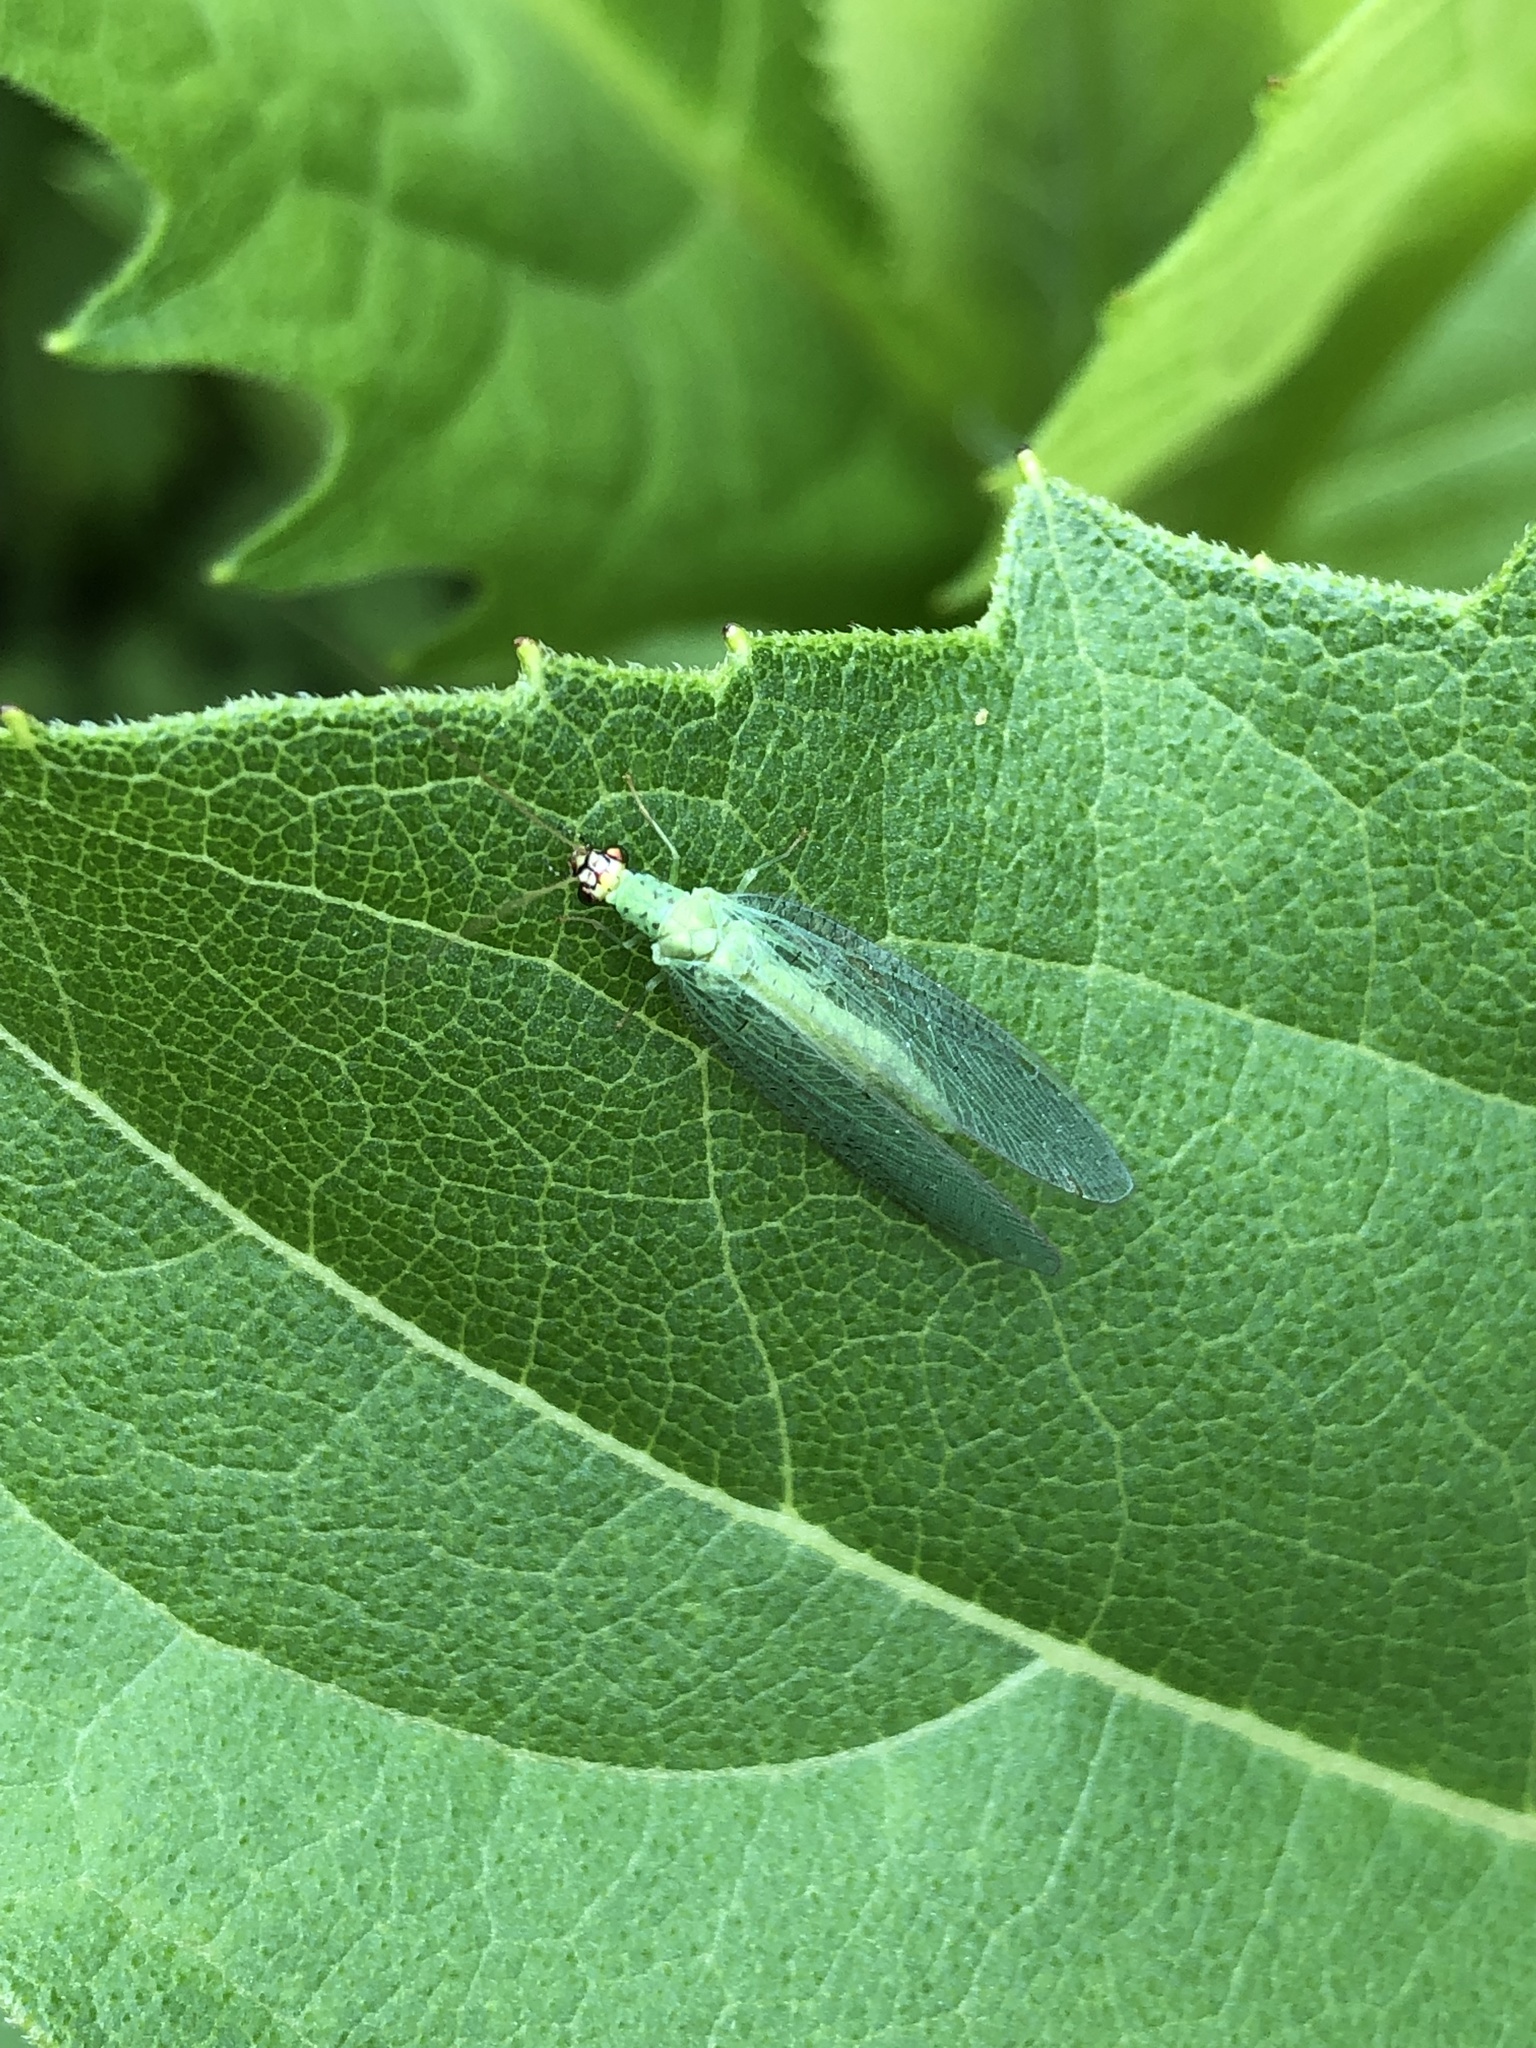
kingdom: Animalia
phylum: Arthropoda
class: Insecta
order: Neuroptera
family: Chrysopidae
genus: Chrysopa
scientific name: Chrysopa oculata
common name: Golden-eyed lacewing
